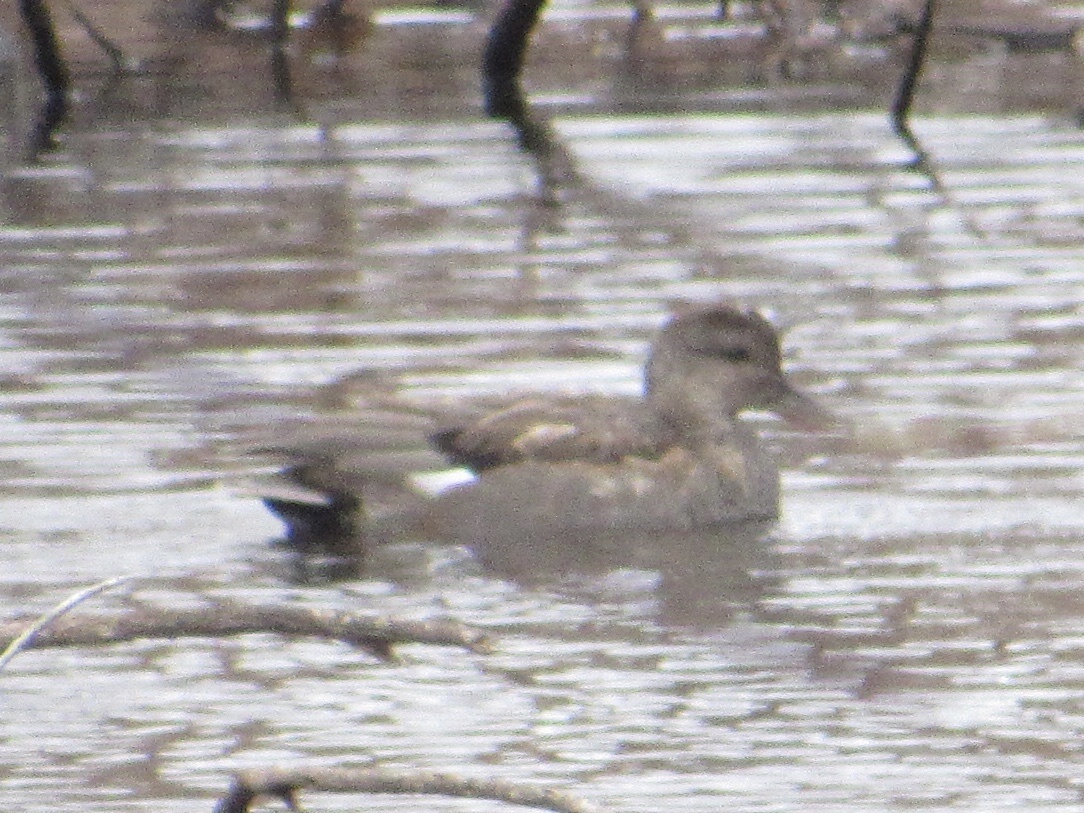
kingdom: Animalia
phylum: Chordata
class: Aves
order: Anseriformes
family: Anatidae
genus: Mareca
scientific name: Mareca strepera
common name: Gadwall
